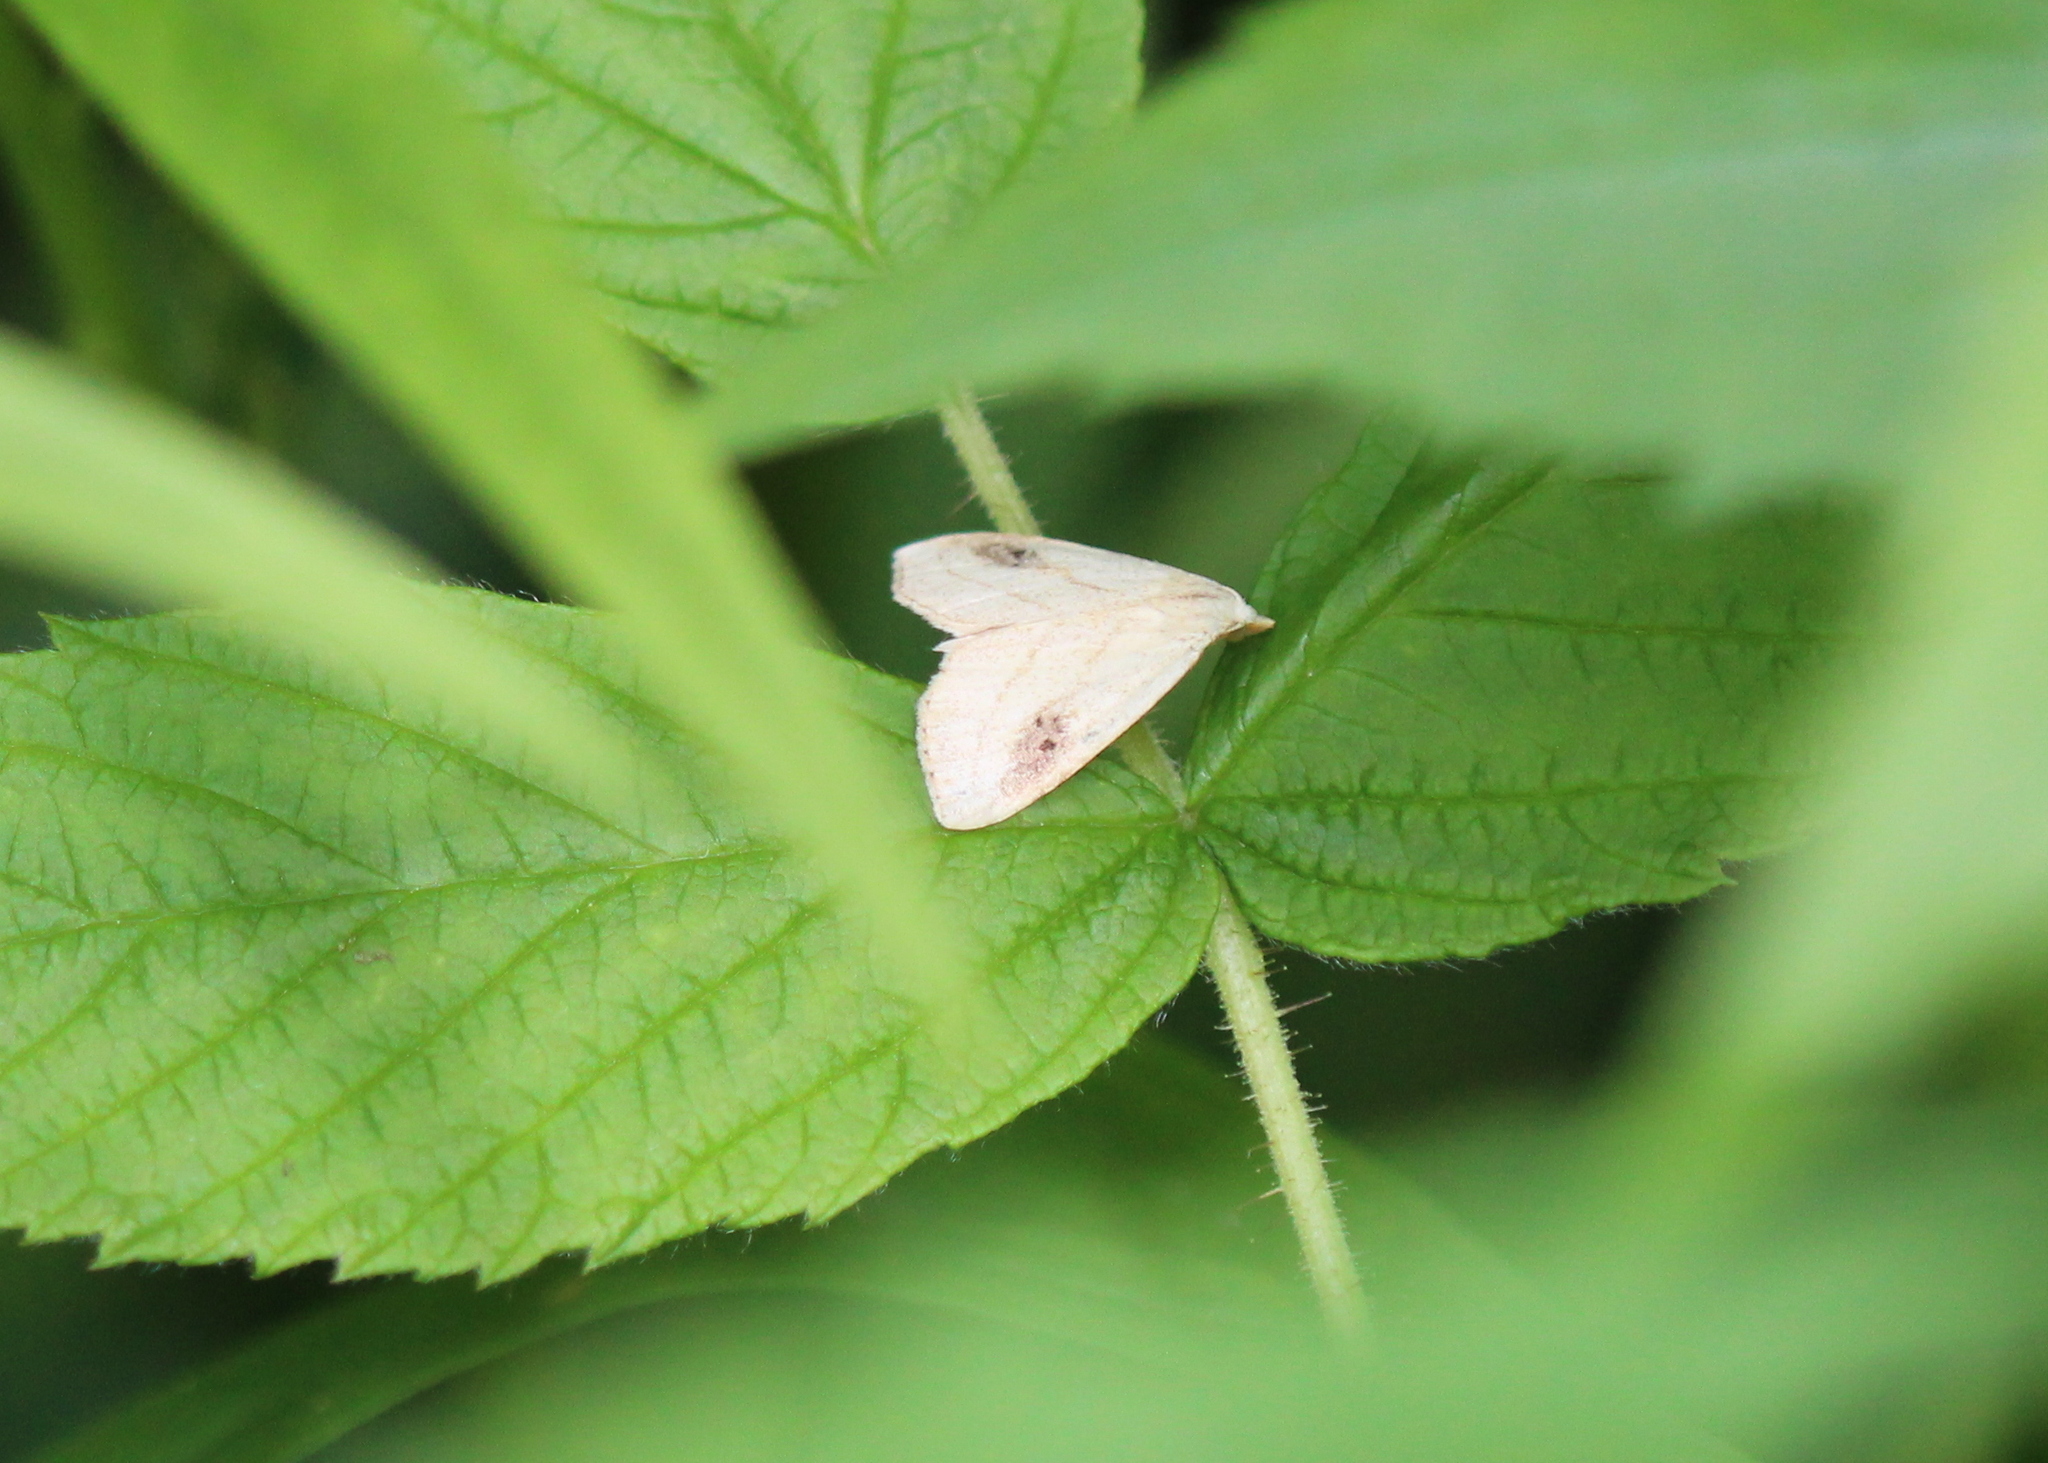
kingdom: Animalia
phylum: Arthropoda
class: Insecta
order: Lepidoptera
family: Erebidae
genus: Rivula
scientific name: Rivula propinqualis
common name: Spotted grass moth
